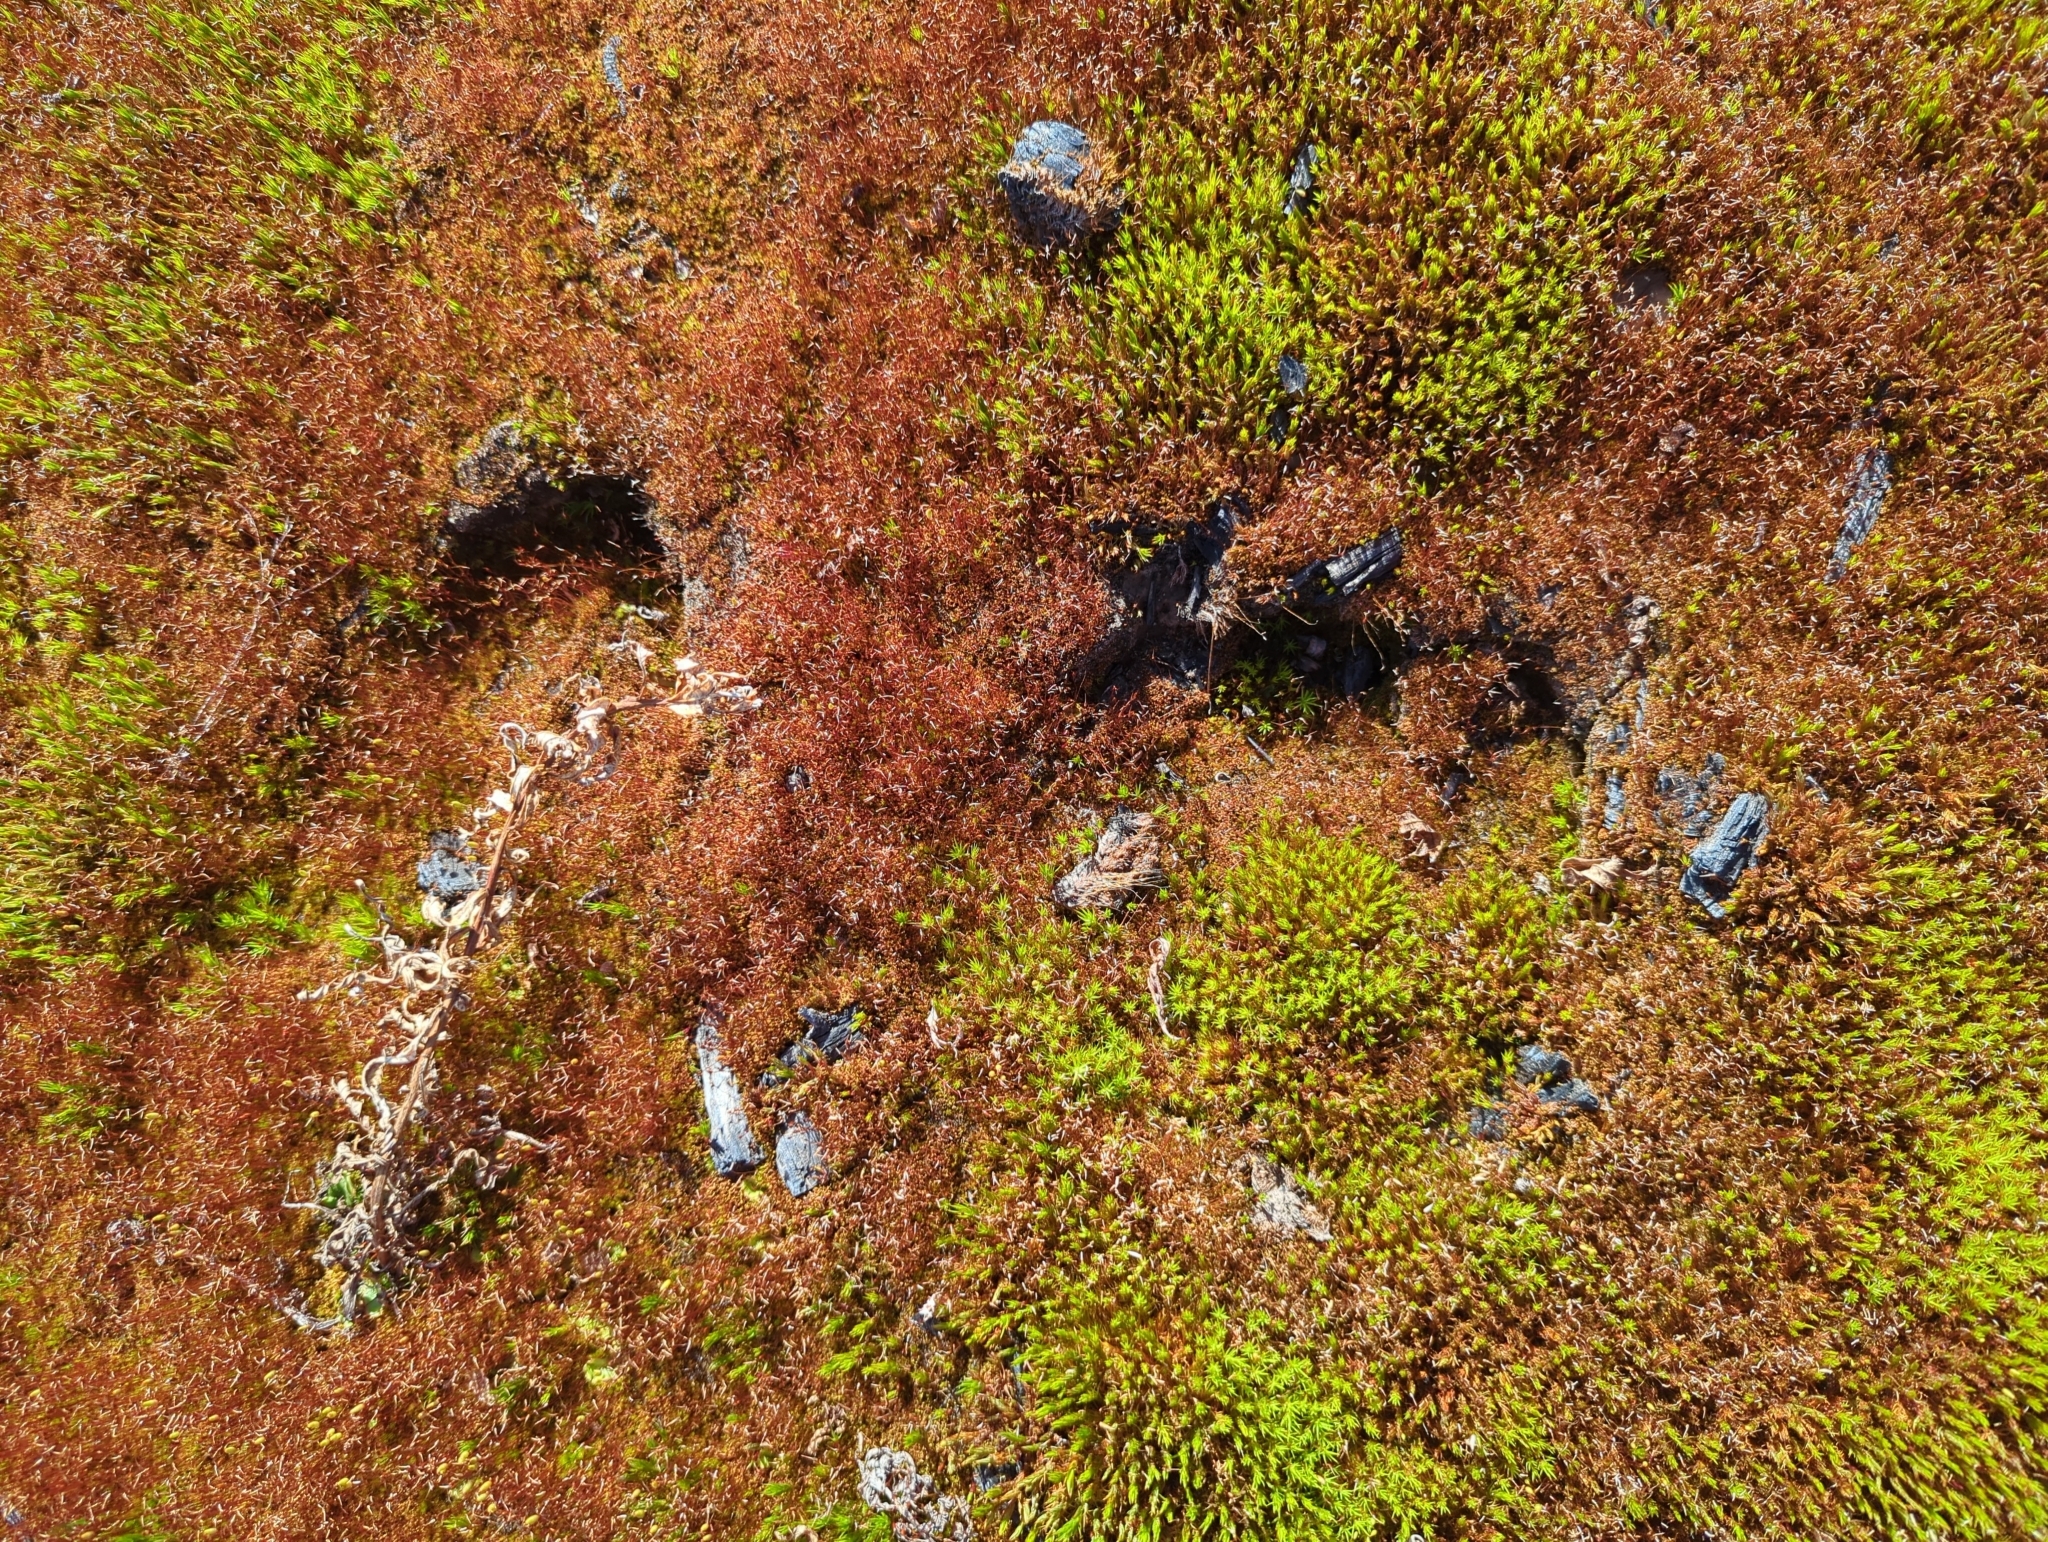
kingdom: Animalia
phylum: Chordata
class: Mammalia
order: Artiodactyla
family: Cervidae
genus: Alces
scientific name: Alces alces
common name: Moose
